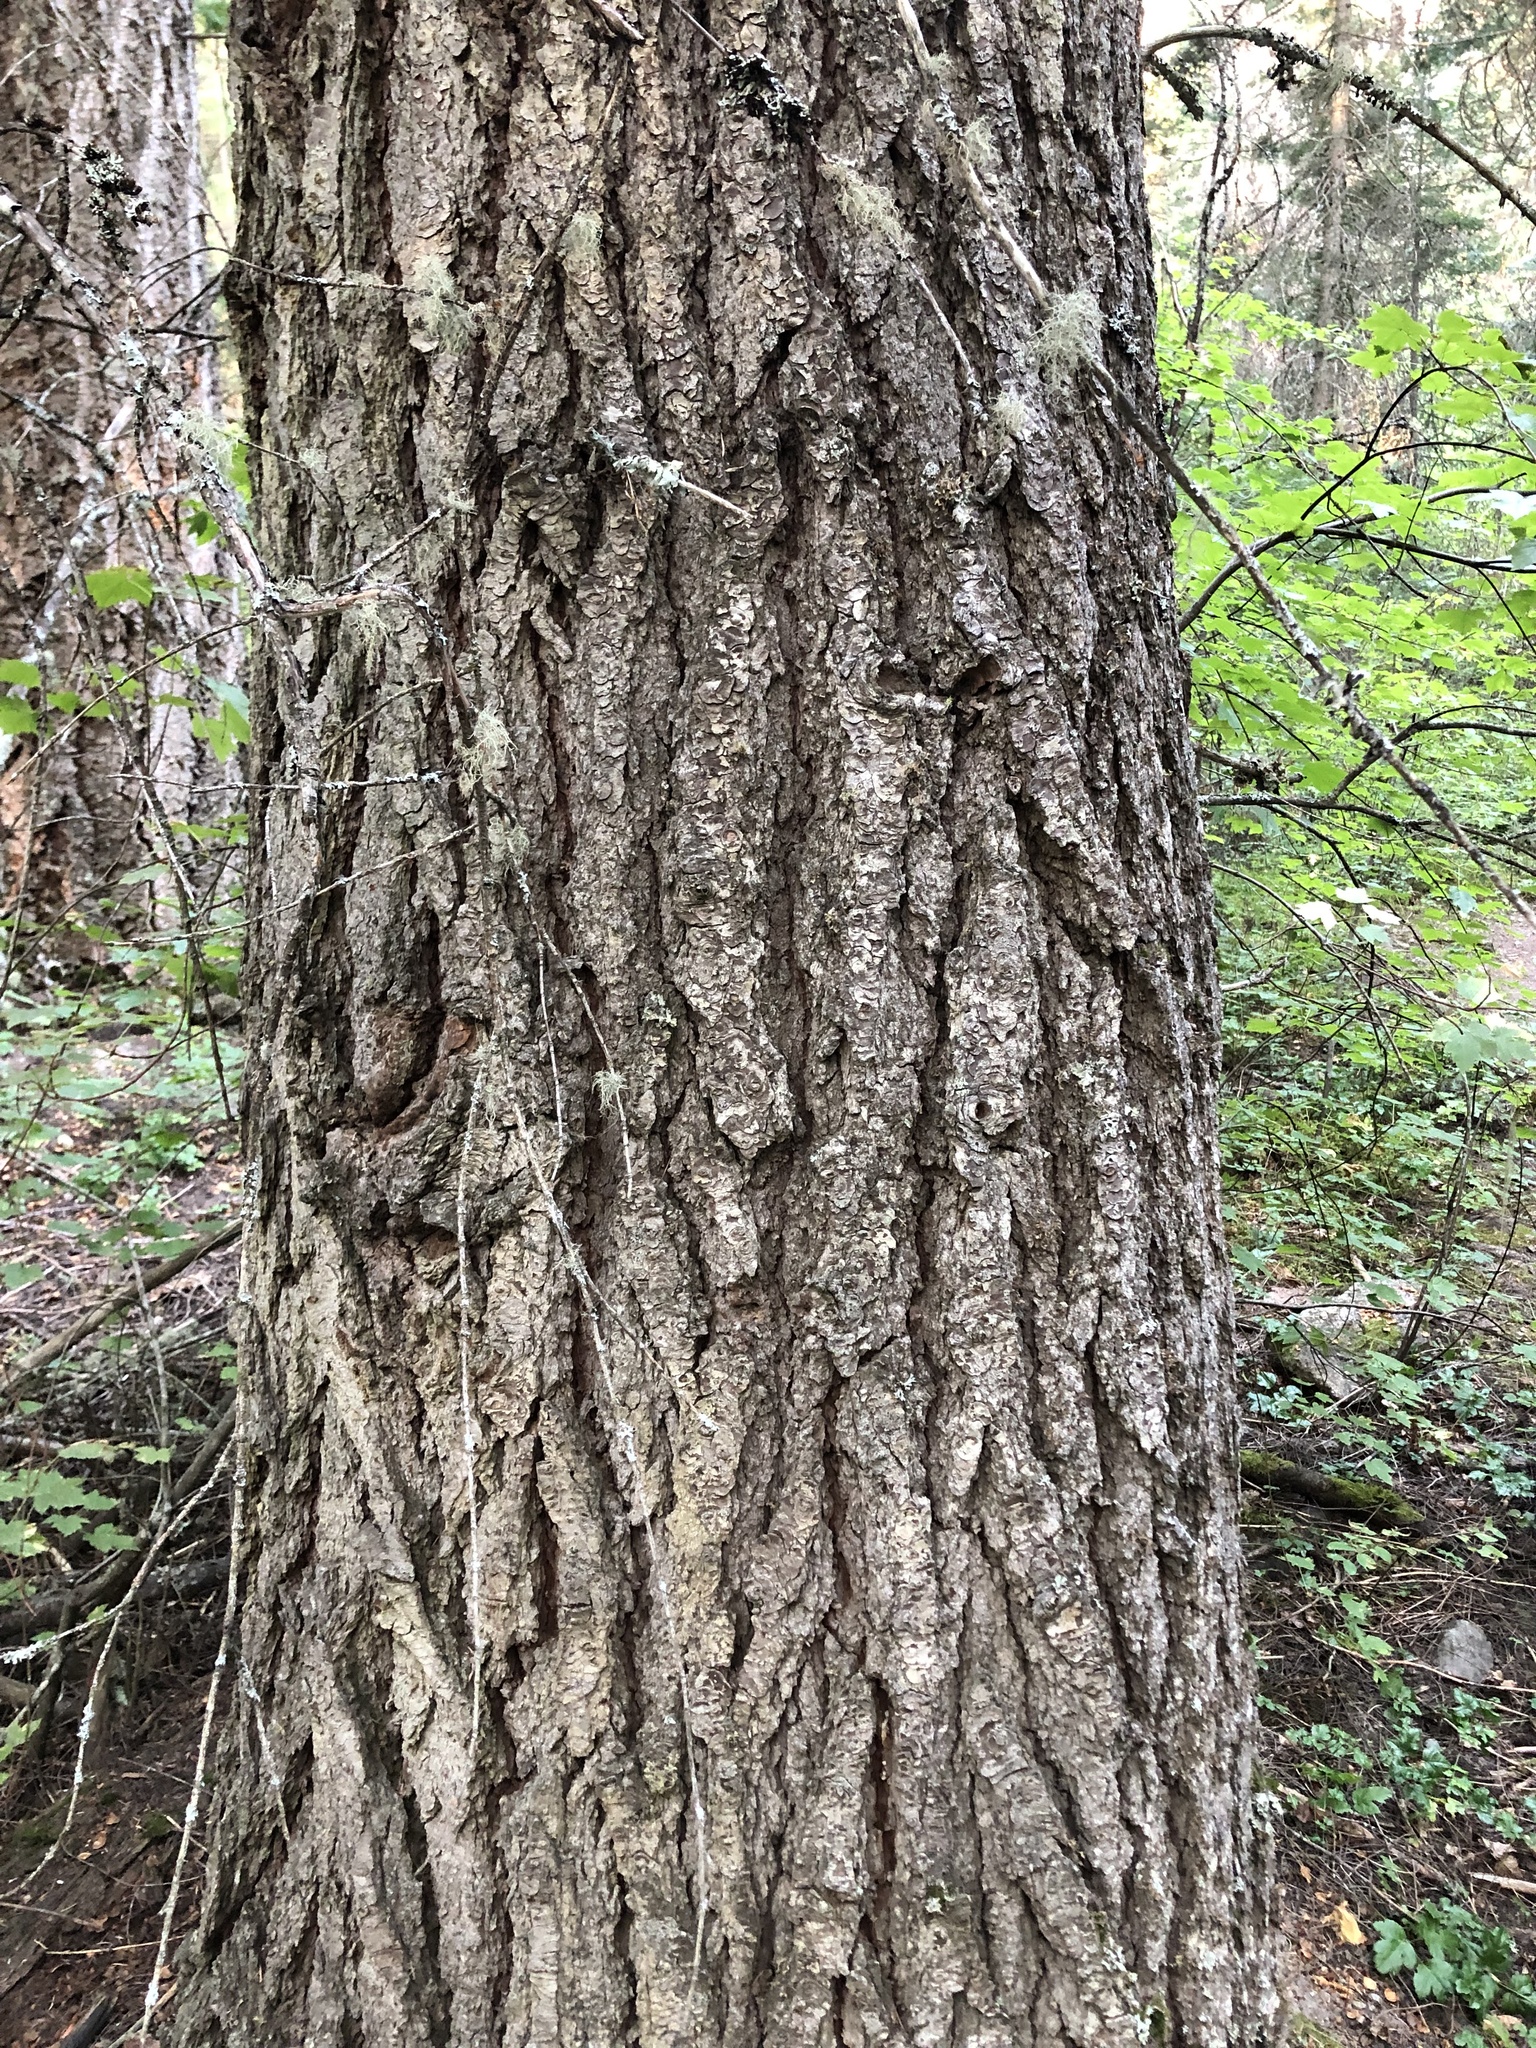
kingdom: Plantae
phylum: Tracheophyta
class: Pinopsida
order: Pinales
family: Pinaceae
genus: Abies
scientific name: Abies grandis
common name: Giant fir
